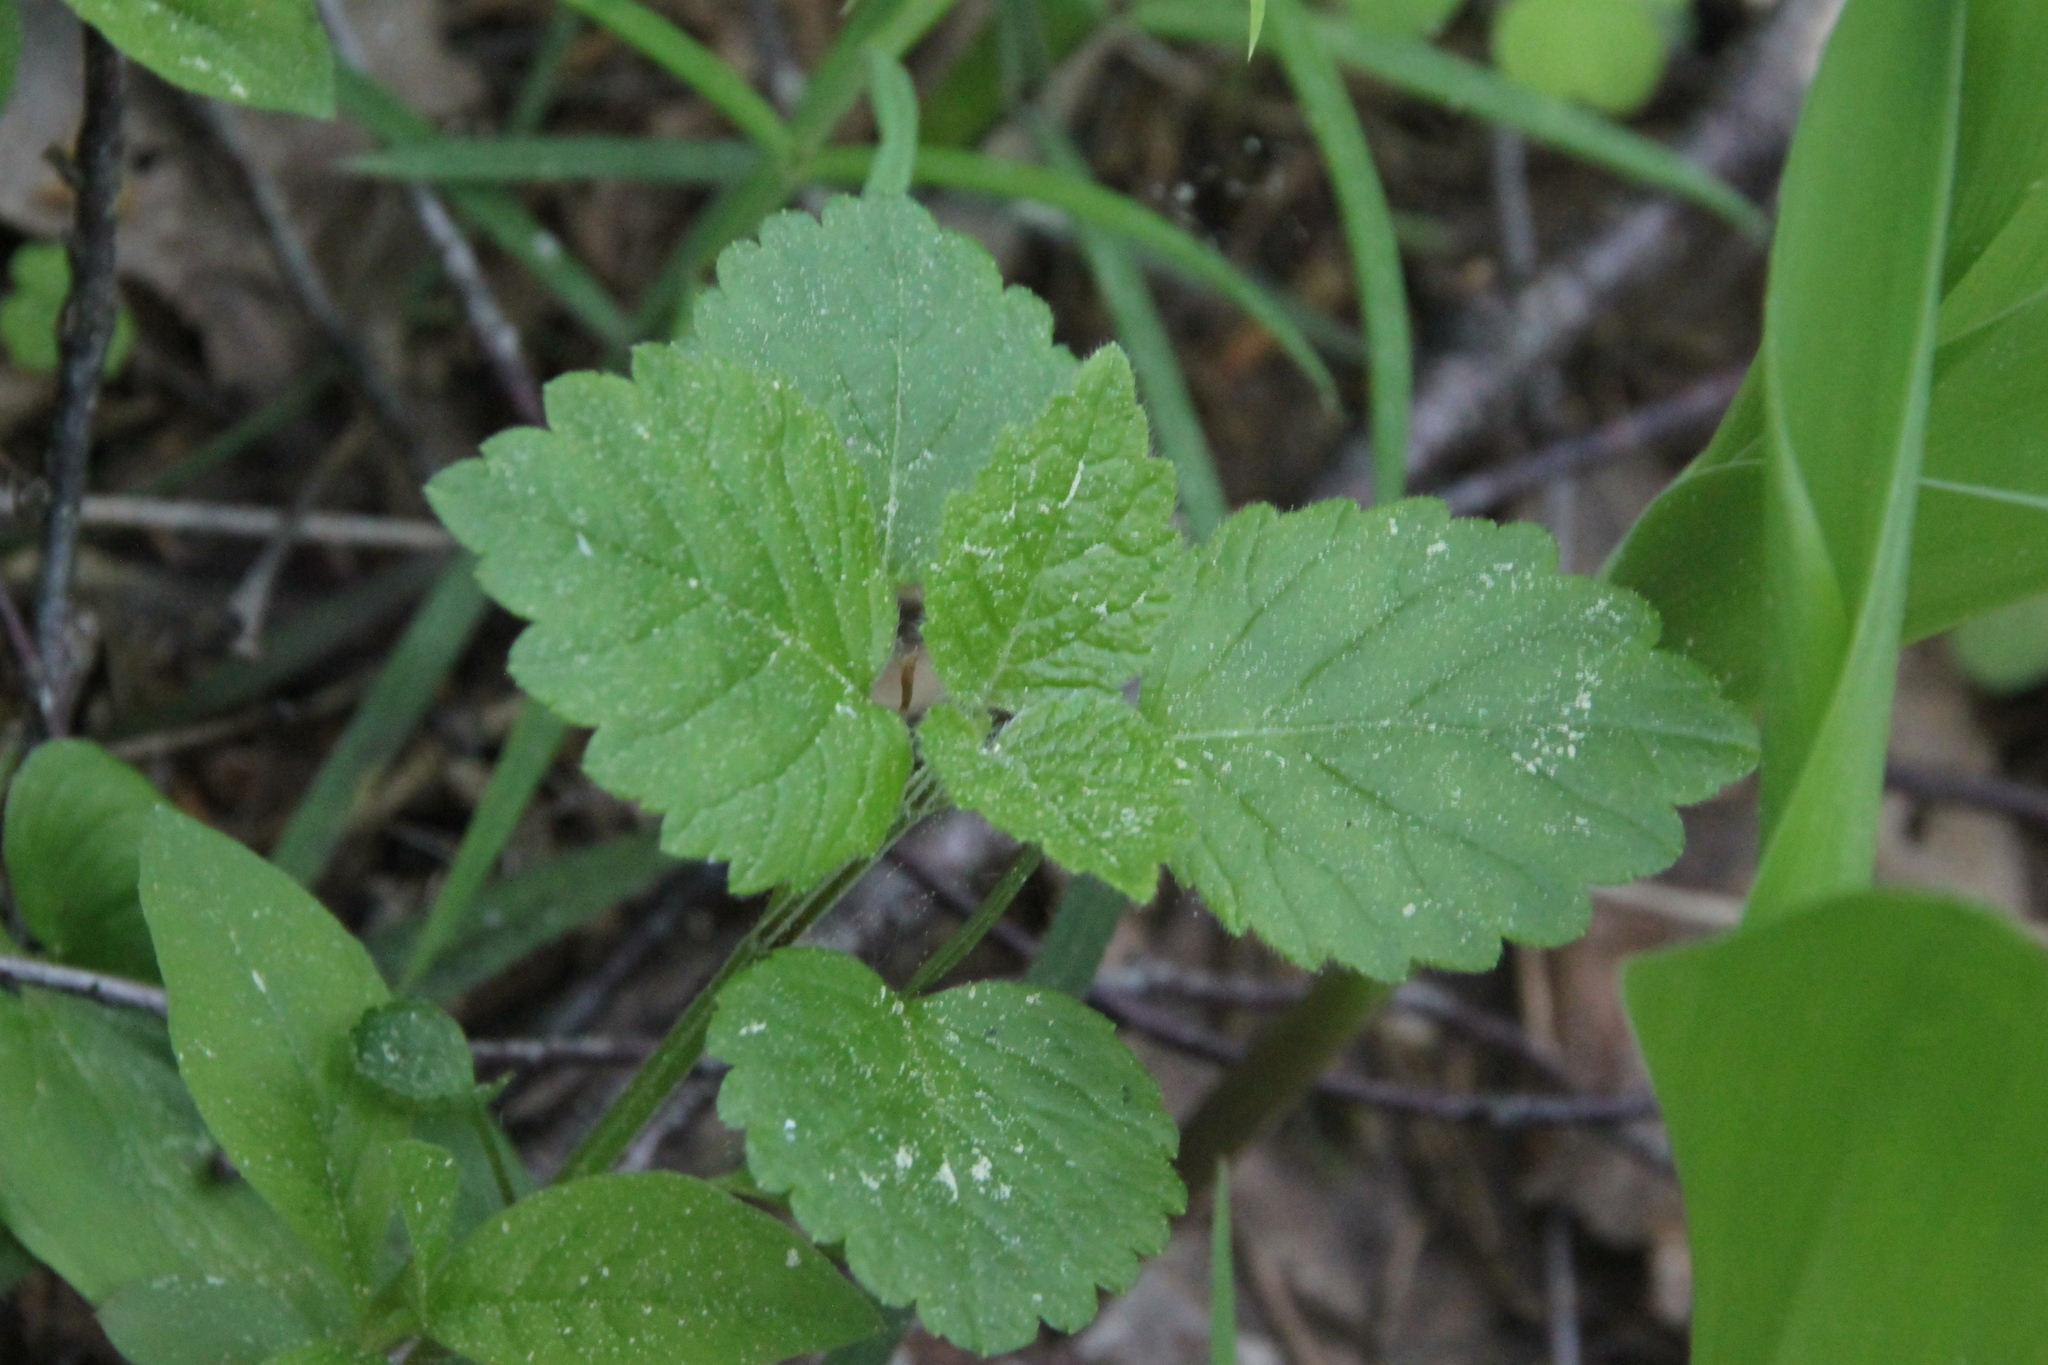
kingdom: Plantae
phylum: Tracheophyta
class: Magnoliopsida
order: Lamiales
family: Lamiaceae
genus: Lamium
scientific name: Lamium galeobdolon
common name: Yellow archangel
